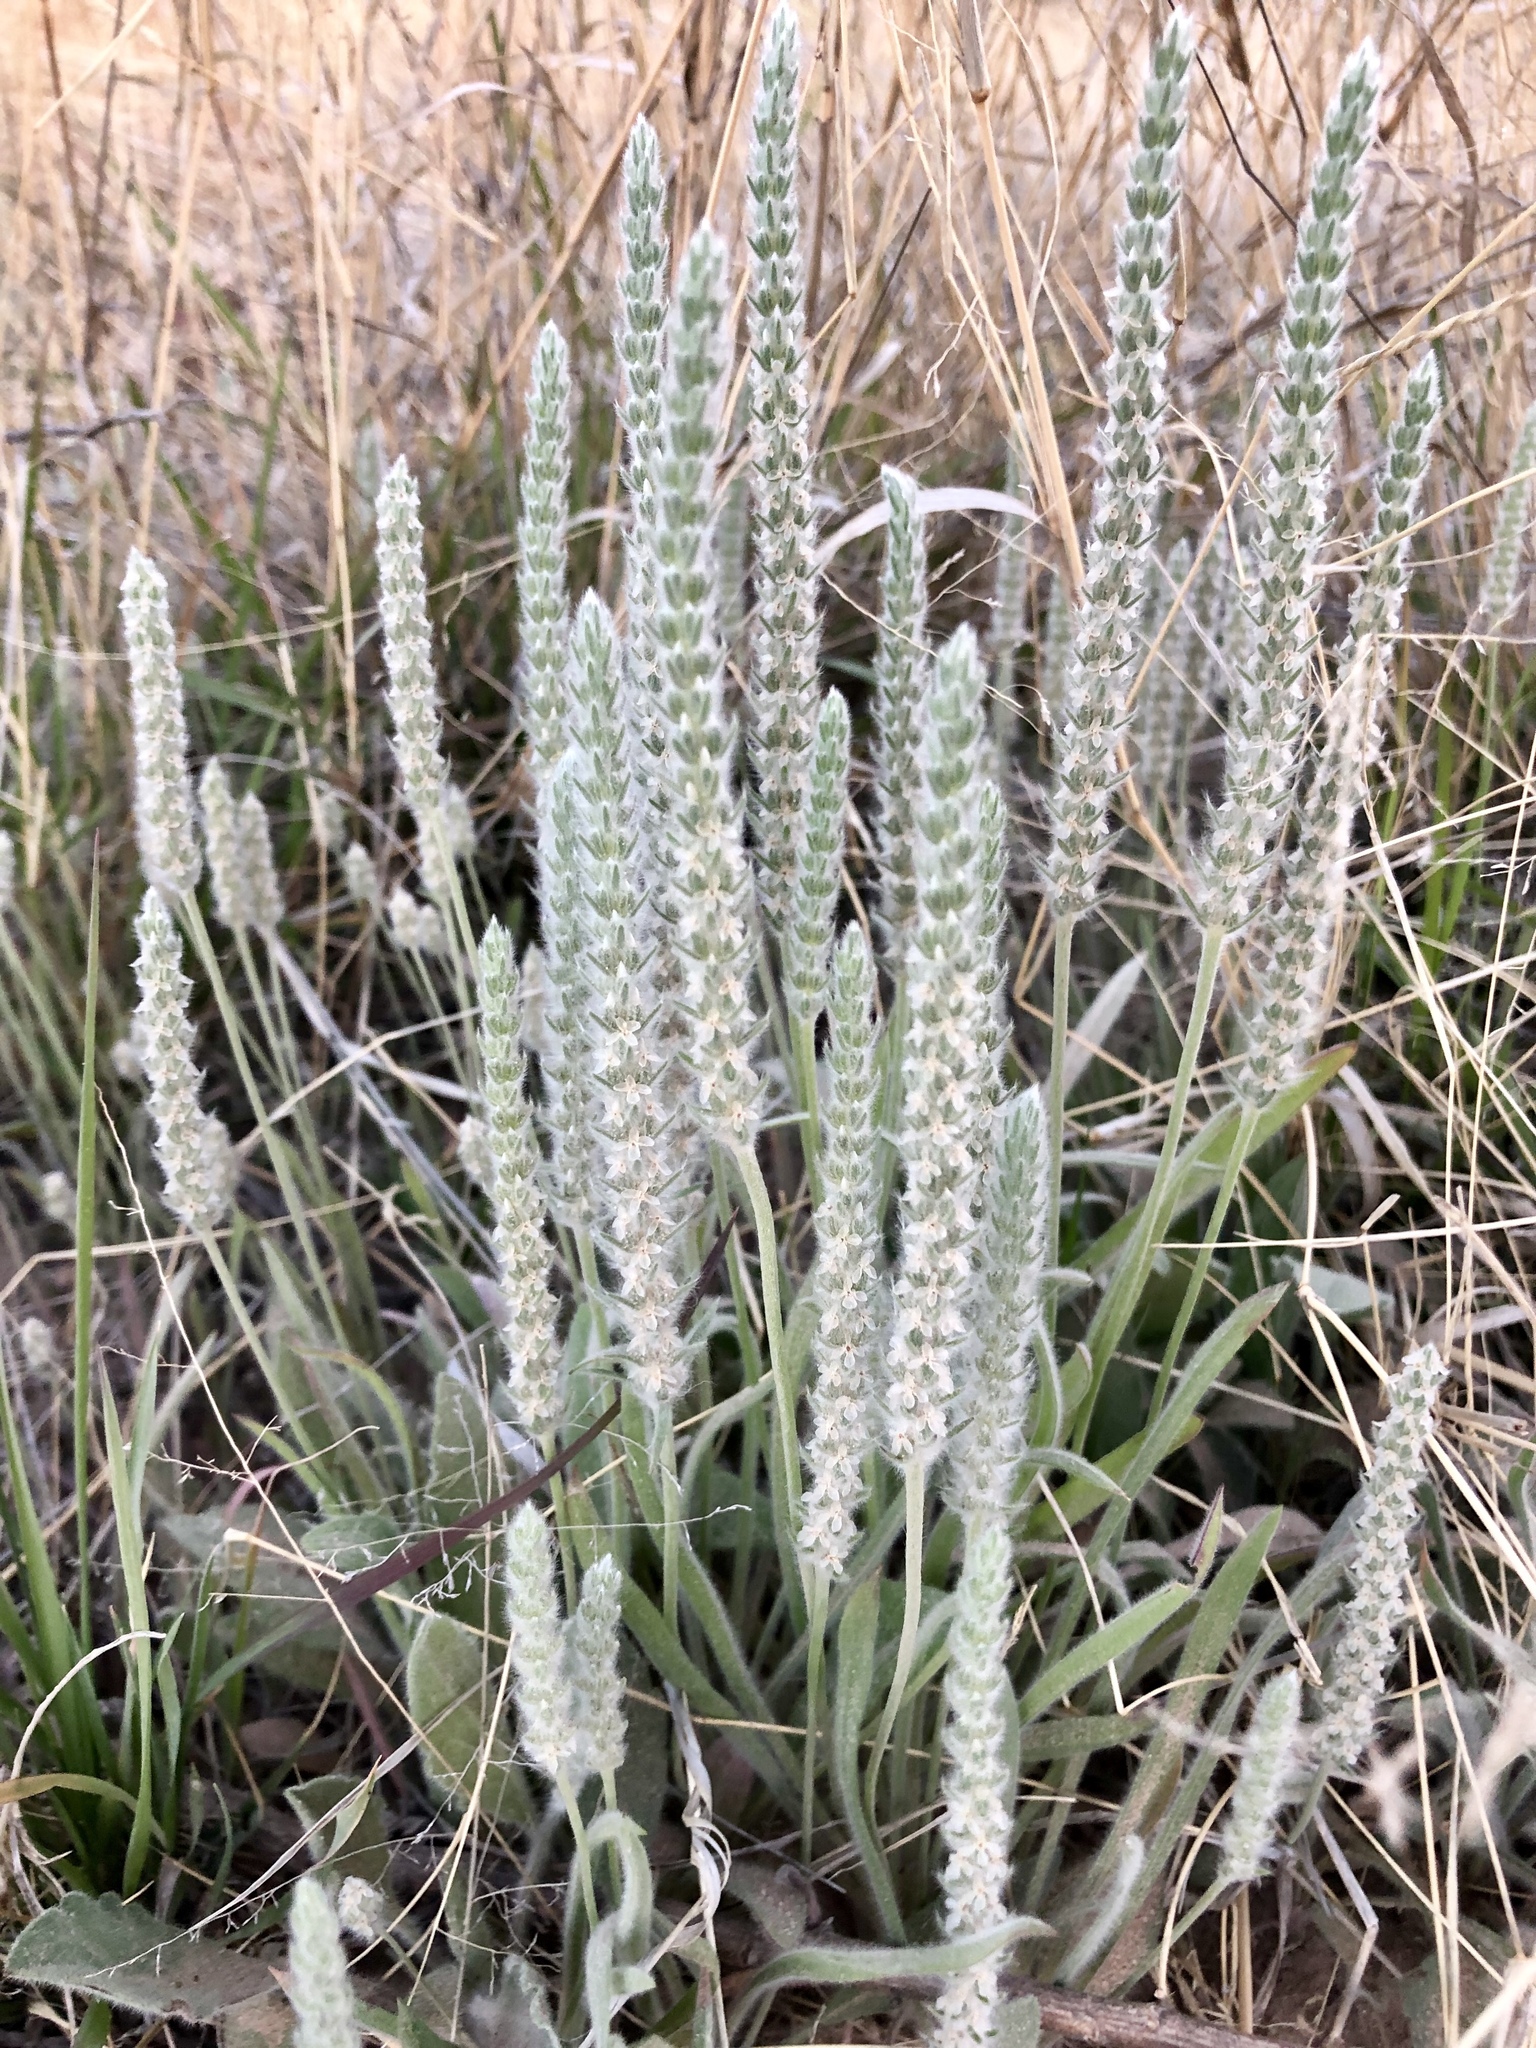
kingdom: Plantae
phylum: Tracheophyta
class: Magnoliopsida
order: Lamiales
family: Plantaginaceae
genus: Plantago
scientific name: Plantago patagonica
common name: Patagonia indian-wheat
